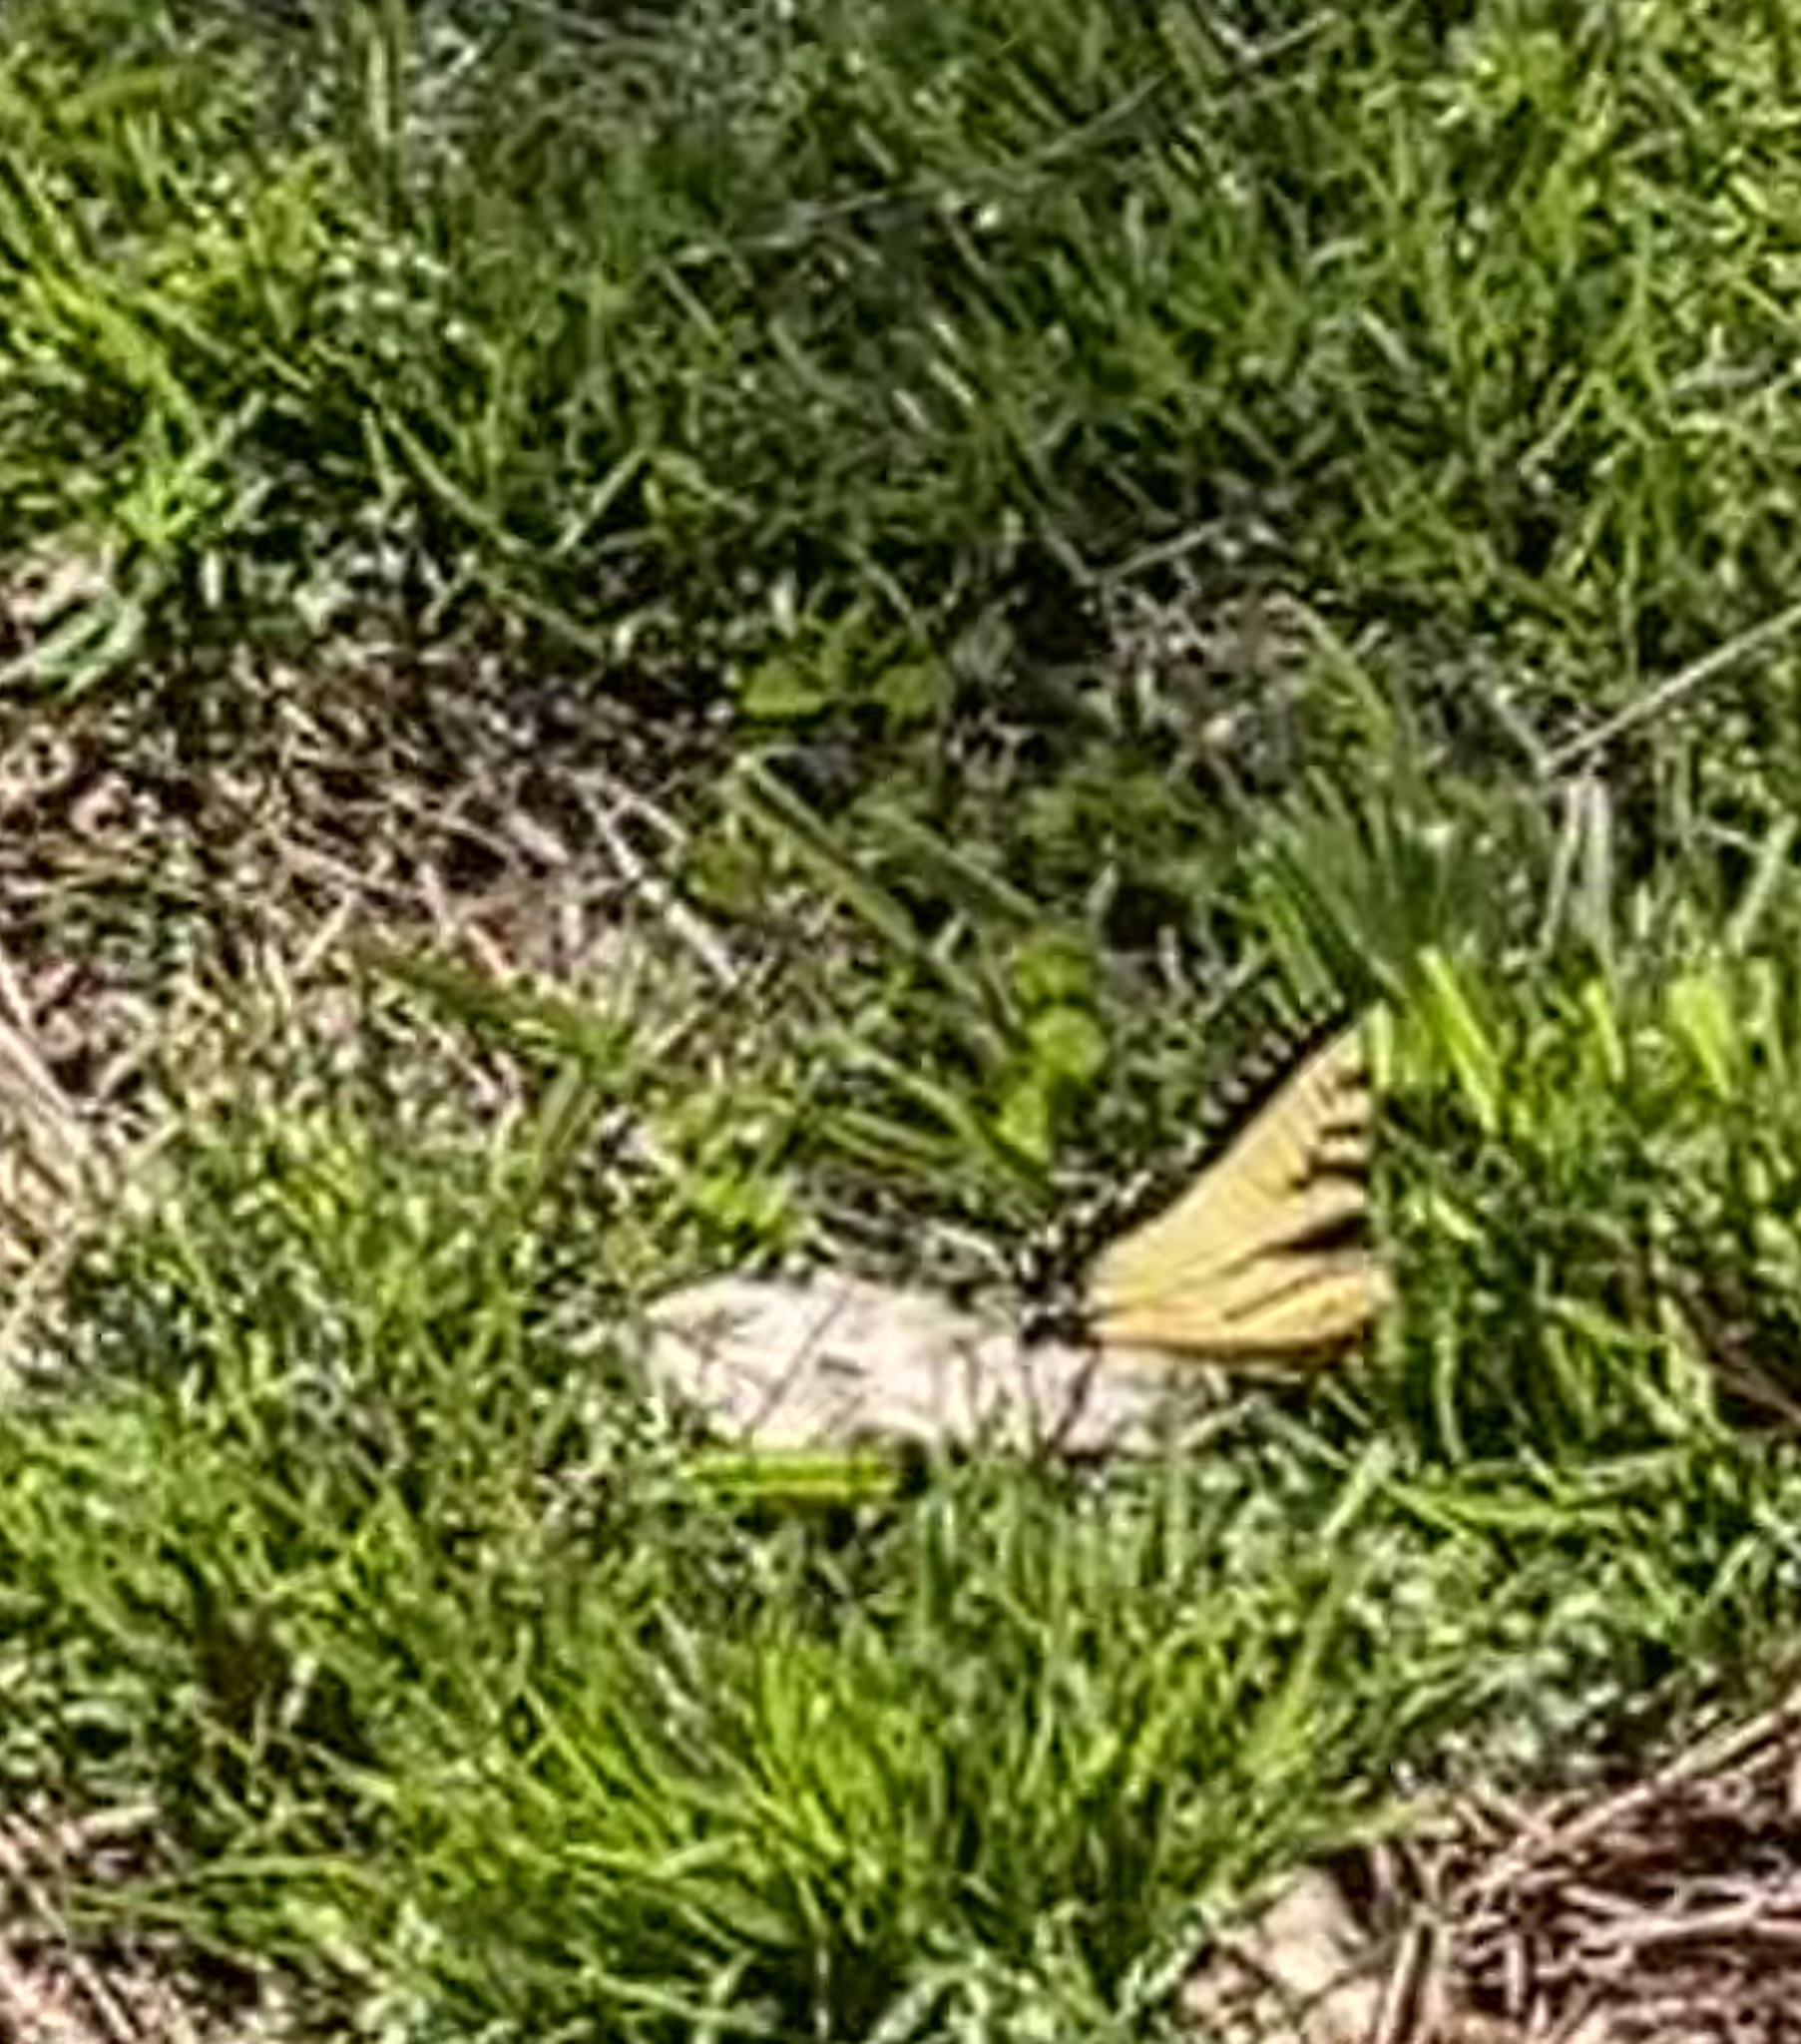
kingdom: Animalia
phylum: Arthropoda
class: Insecta
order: Lepidoptera
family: Papilionidae
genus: Papilio
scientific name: Papilio glaucus
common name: Tiger swallowtail
